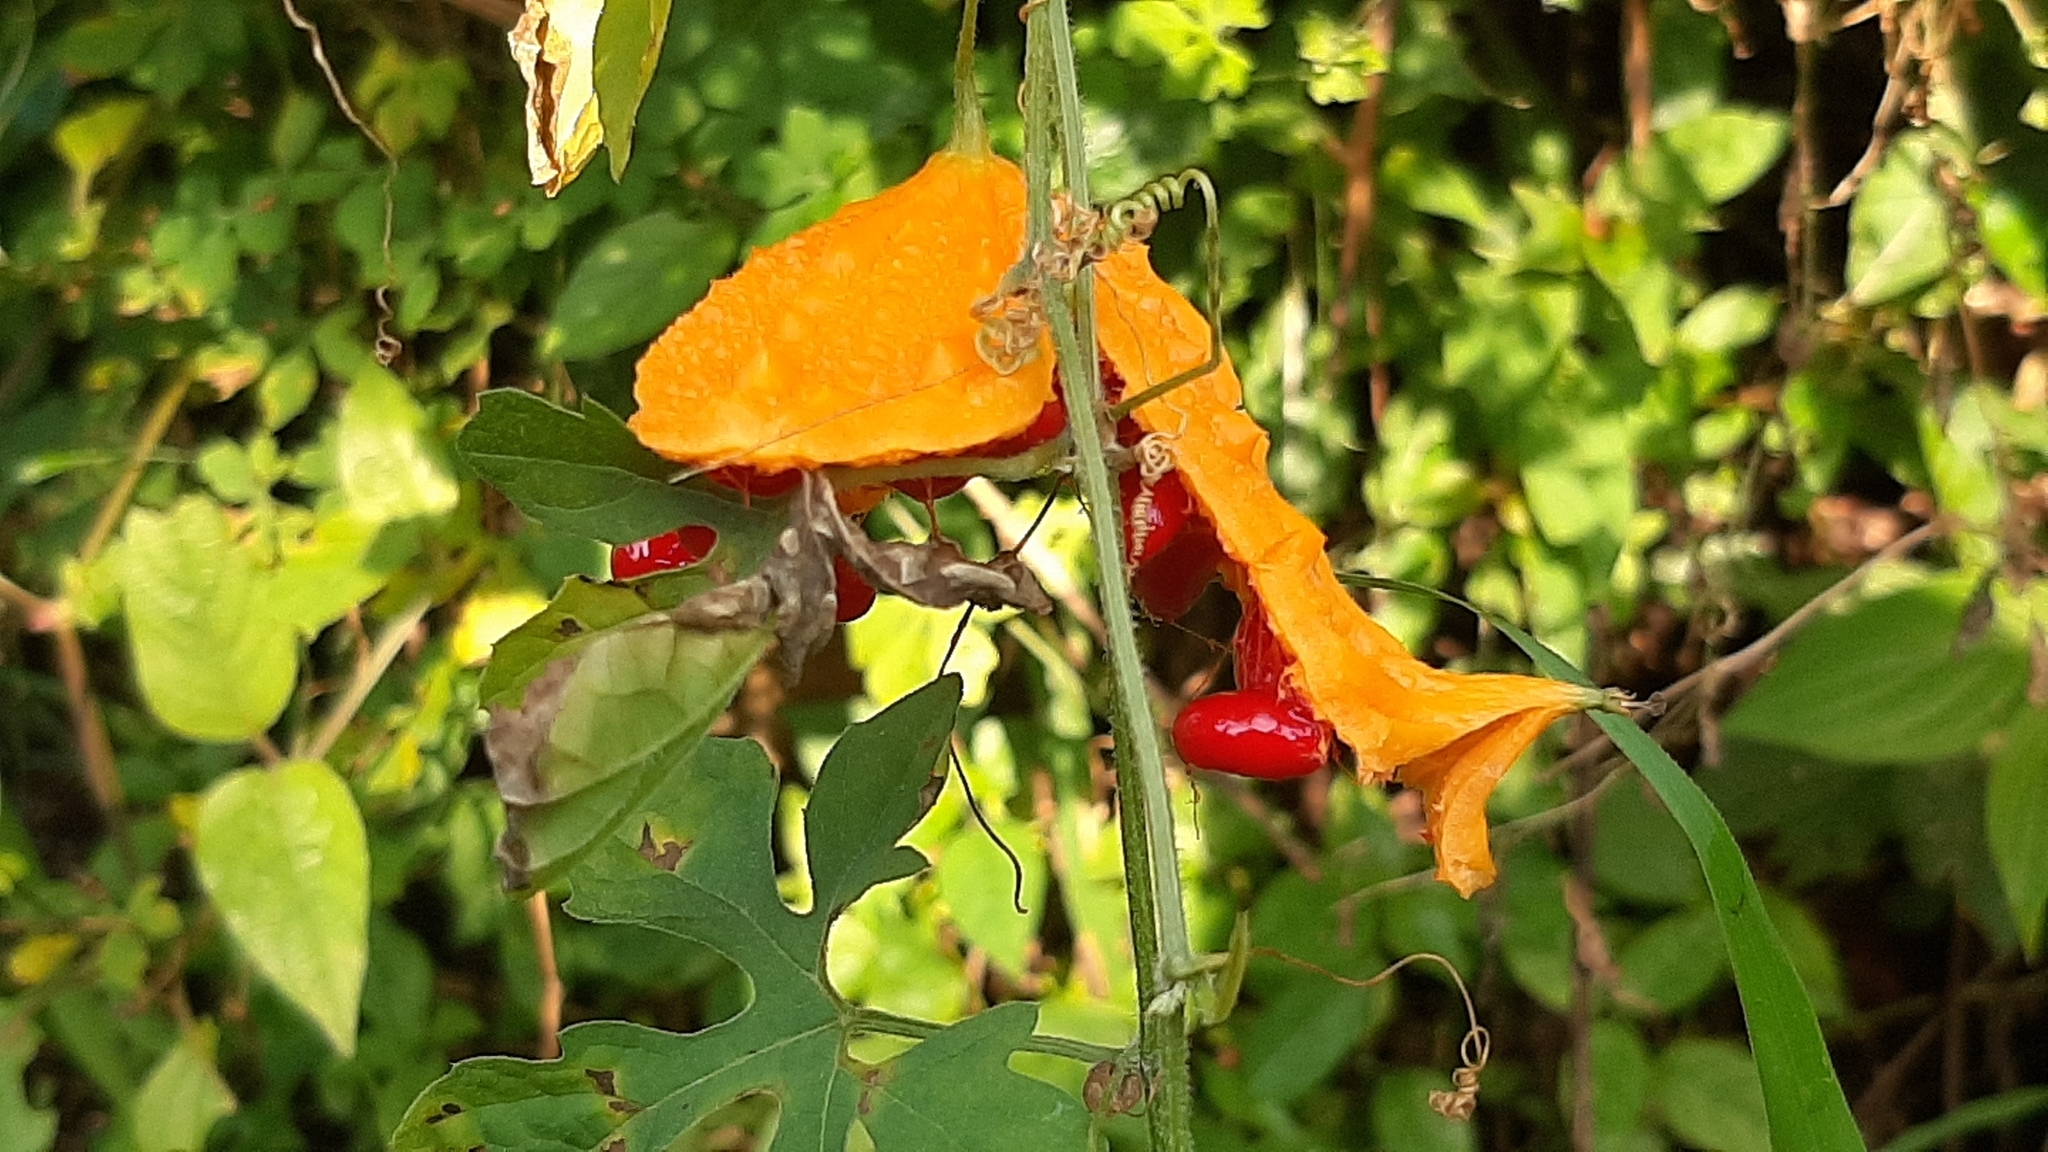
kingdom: Plantae
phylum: Tracheophyta
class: Magnoliopsida
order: Cucurbitales
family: Cucurbitaceae
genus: Momordica
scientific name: Momordica charantia
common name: Balsampear
